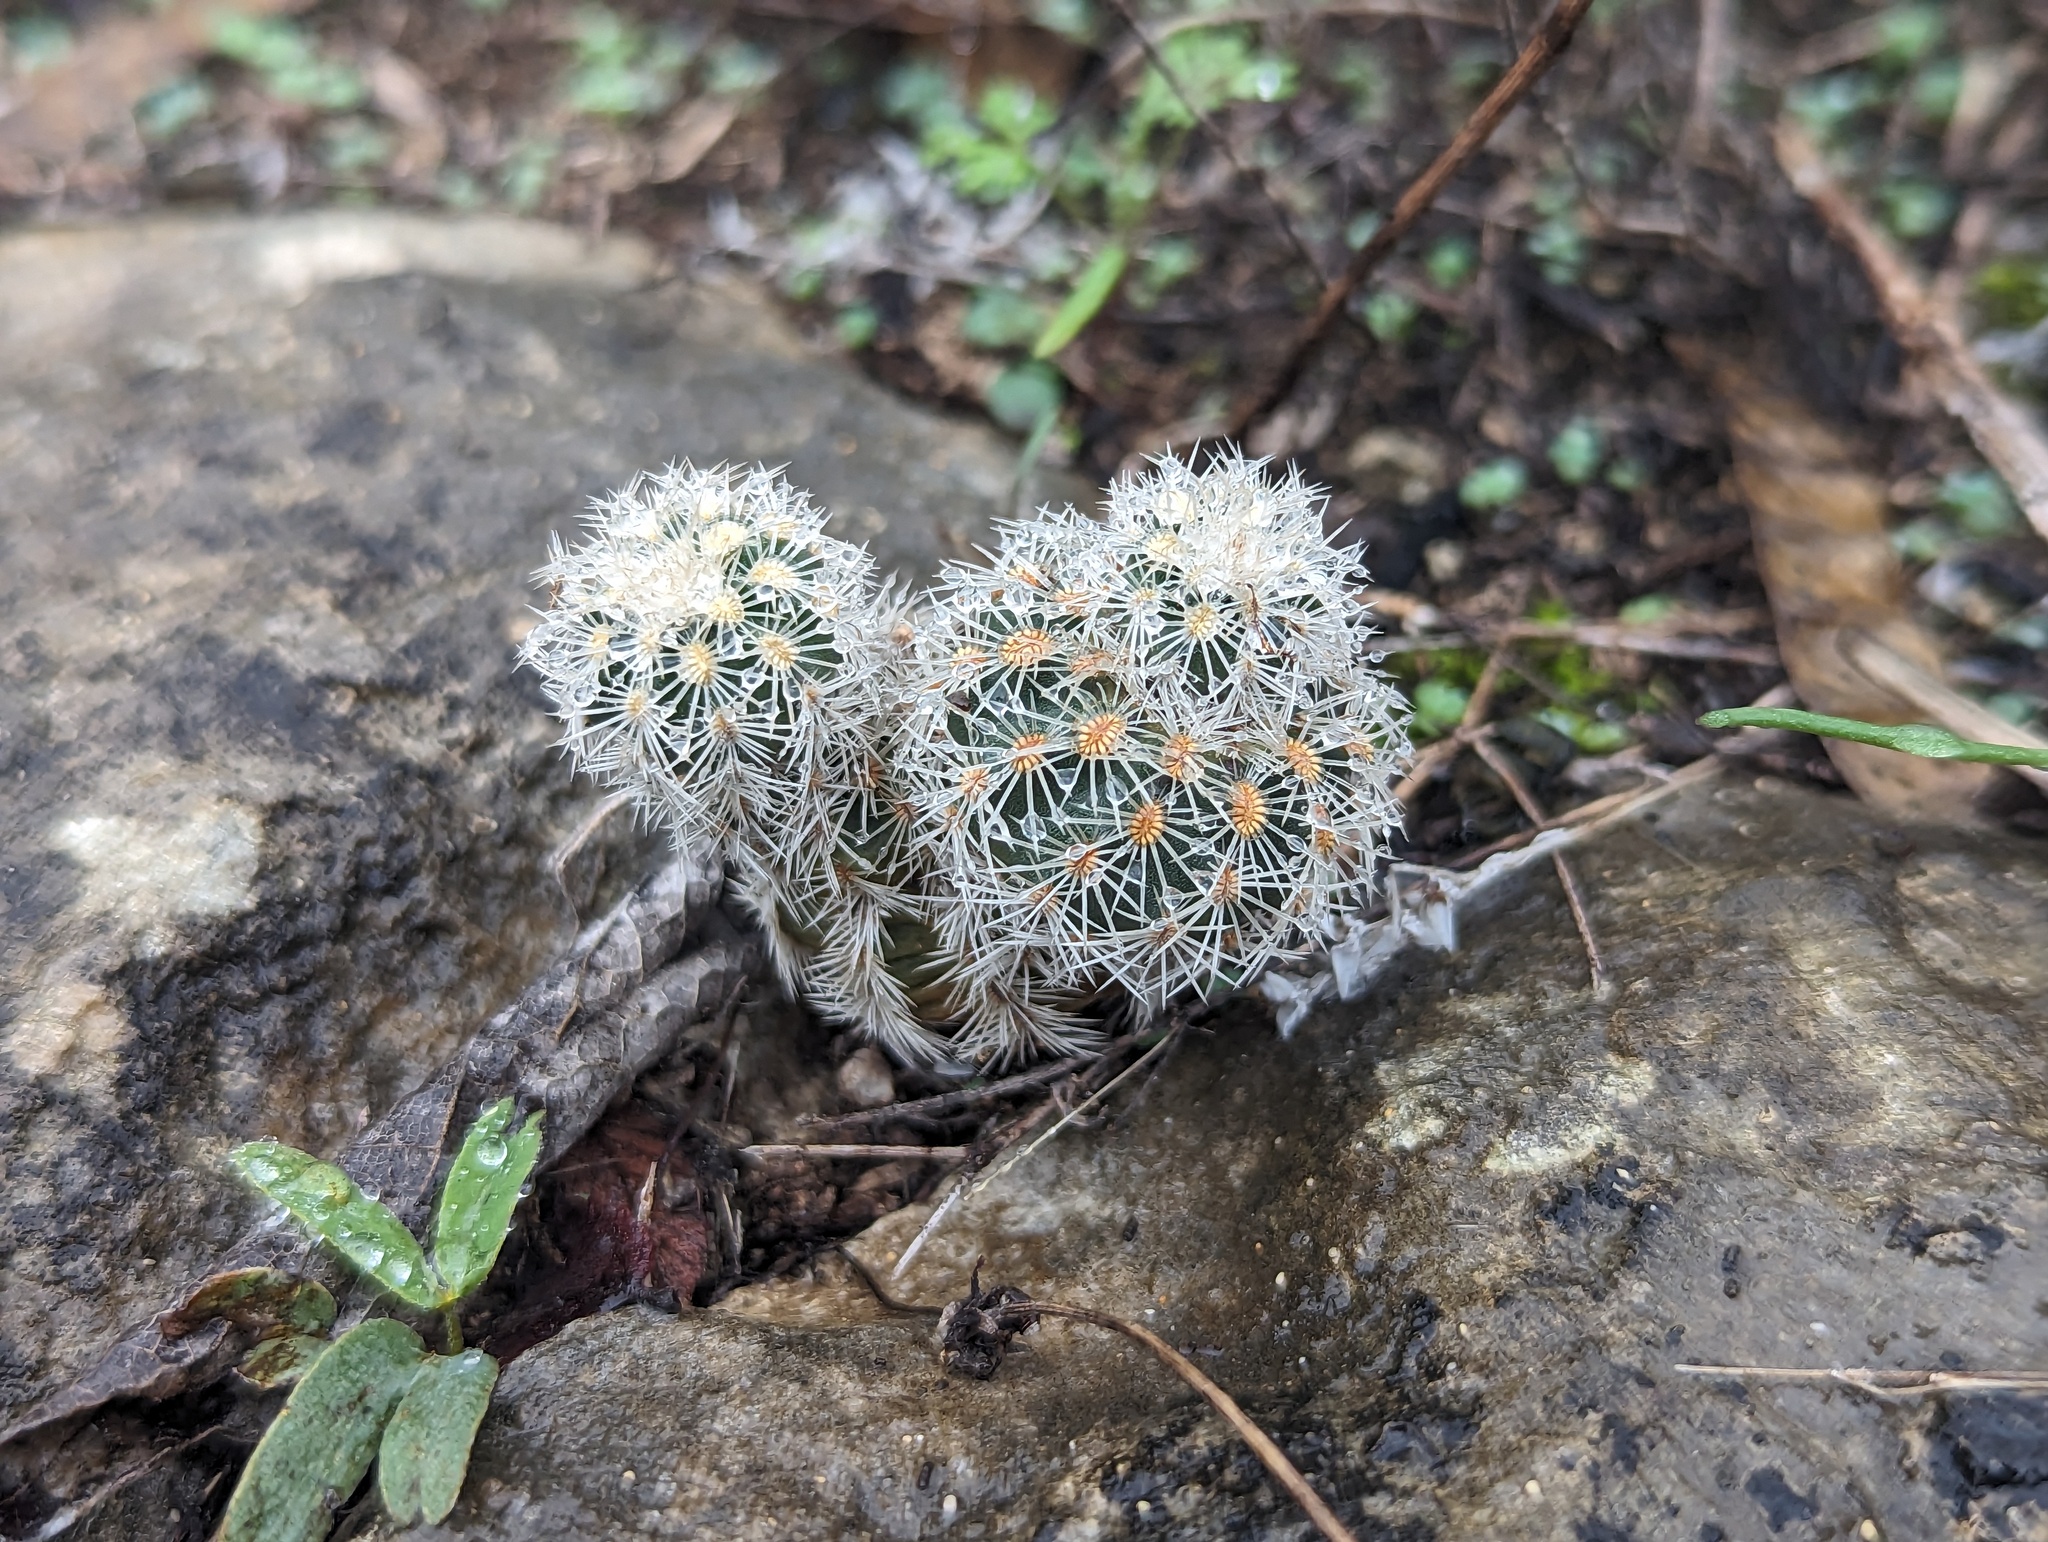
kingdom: Plantae
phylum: Tracheophyta
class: Magnoliopsida
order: Caryophyllales
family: Cactaceae
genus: Echinocereus
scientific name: Echinocereus reichenbachii
